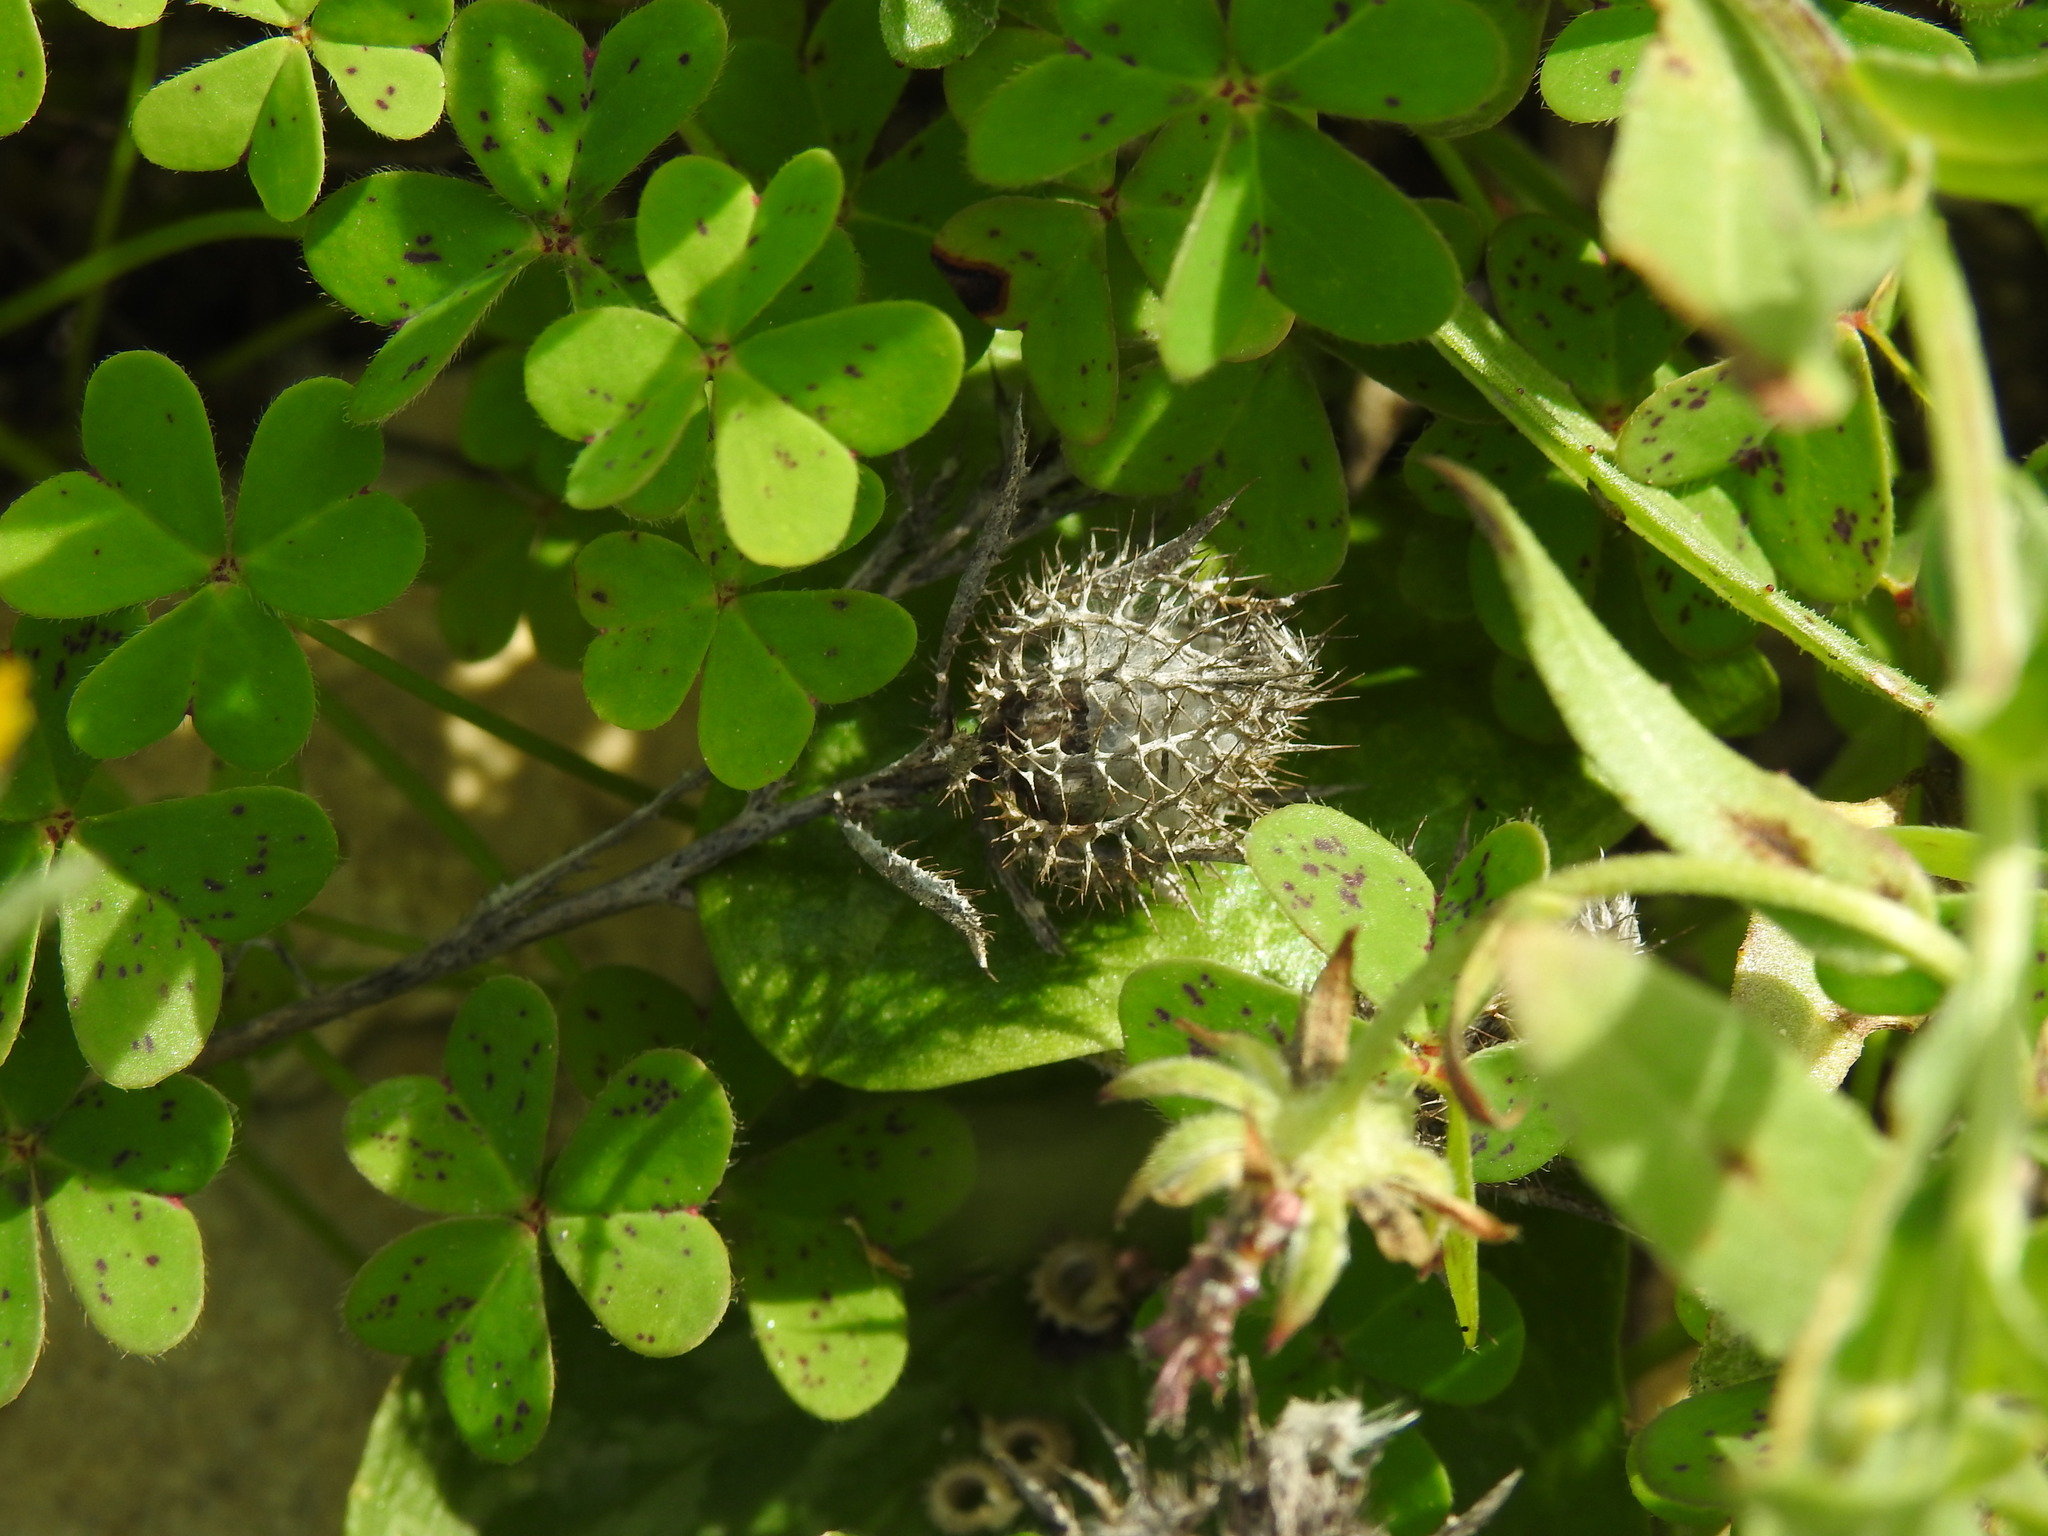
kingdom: Plantae
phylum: Tracheophyta
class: Magnoliopsida
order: Asterales
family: Asteraceae
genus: Atractylis
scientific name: Atractylis cancellata
